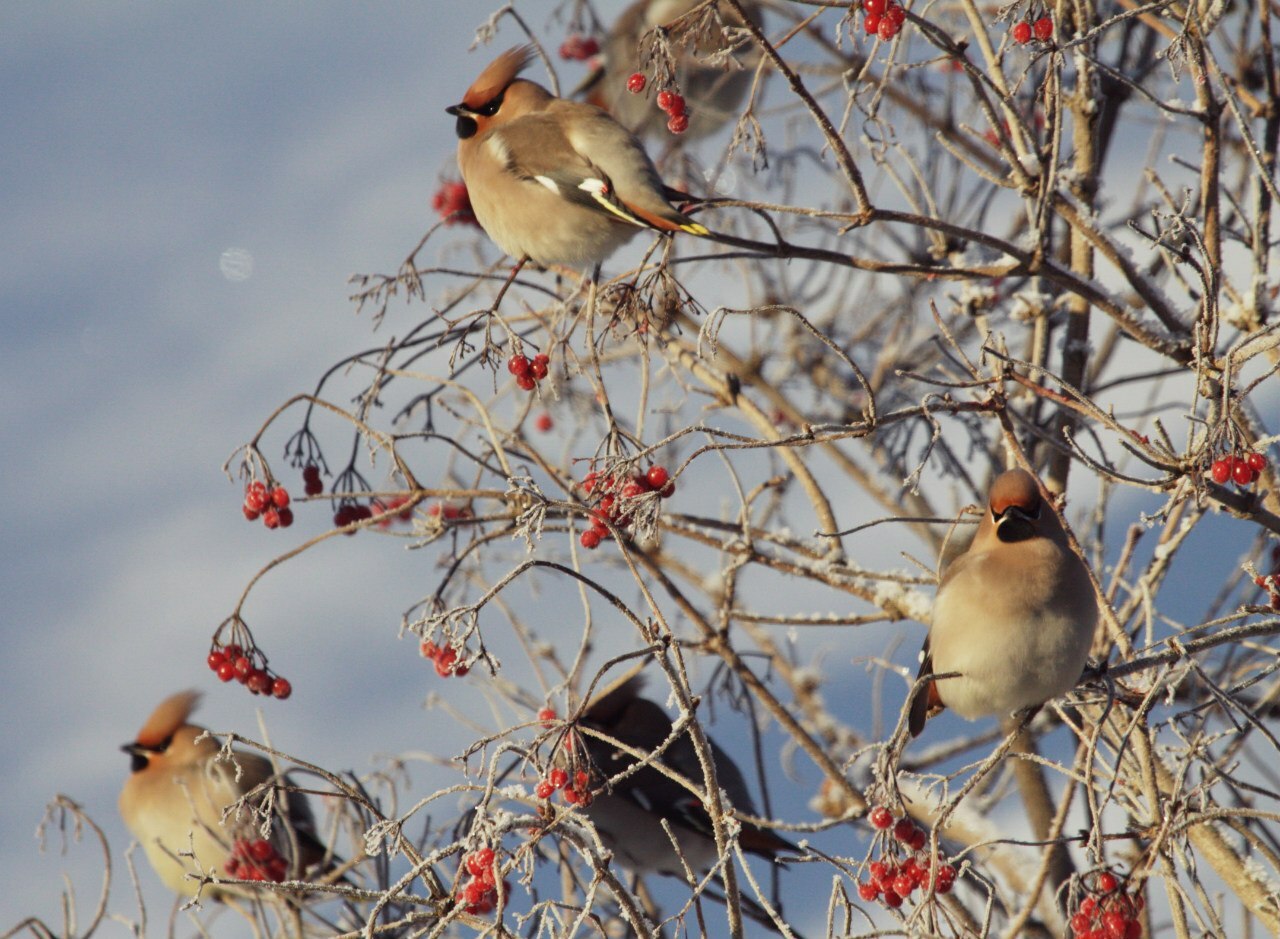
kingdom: Animalia
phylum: Chordata
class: Aves
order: Passeriformes
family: Bombycillidae
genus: Bombycilla
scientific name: Bombycilla garrulus
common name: Bohemian waxwing
